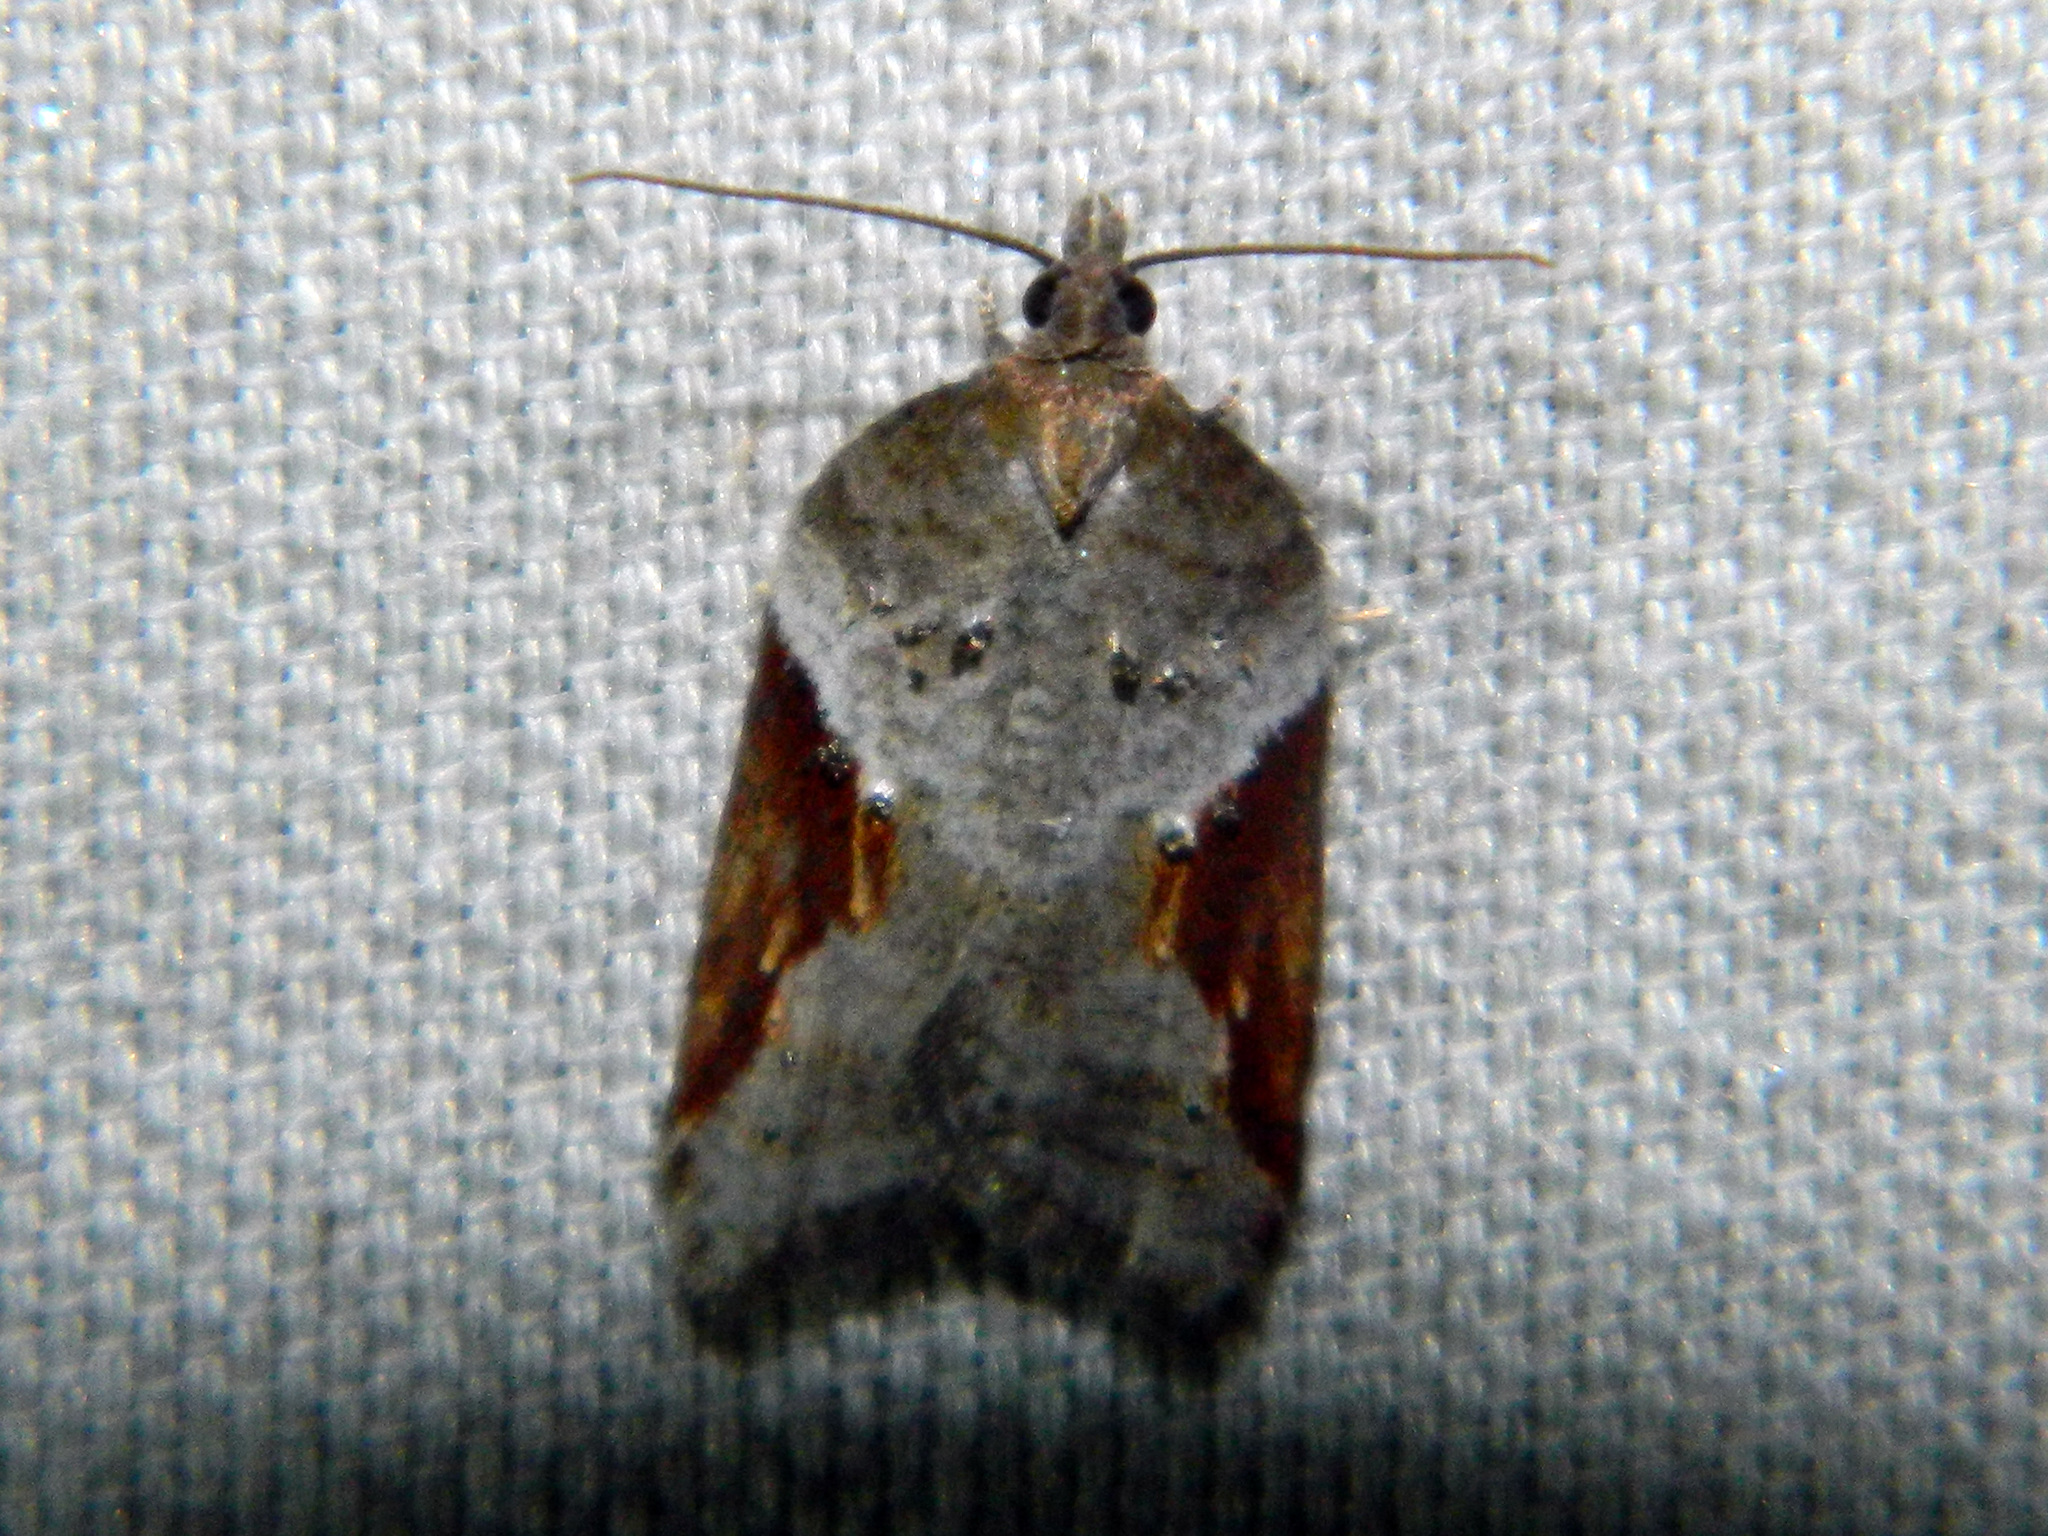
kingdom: Animalia
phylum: Arthropoda
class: Insecta
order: Lepidoptera
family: Tortricidae
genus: Acleris
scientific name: Acleris macdunnoughi
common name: Macdunnough's acleris
